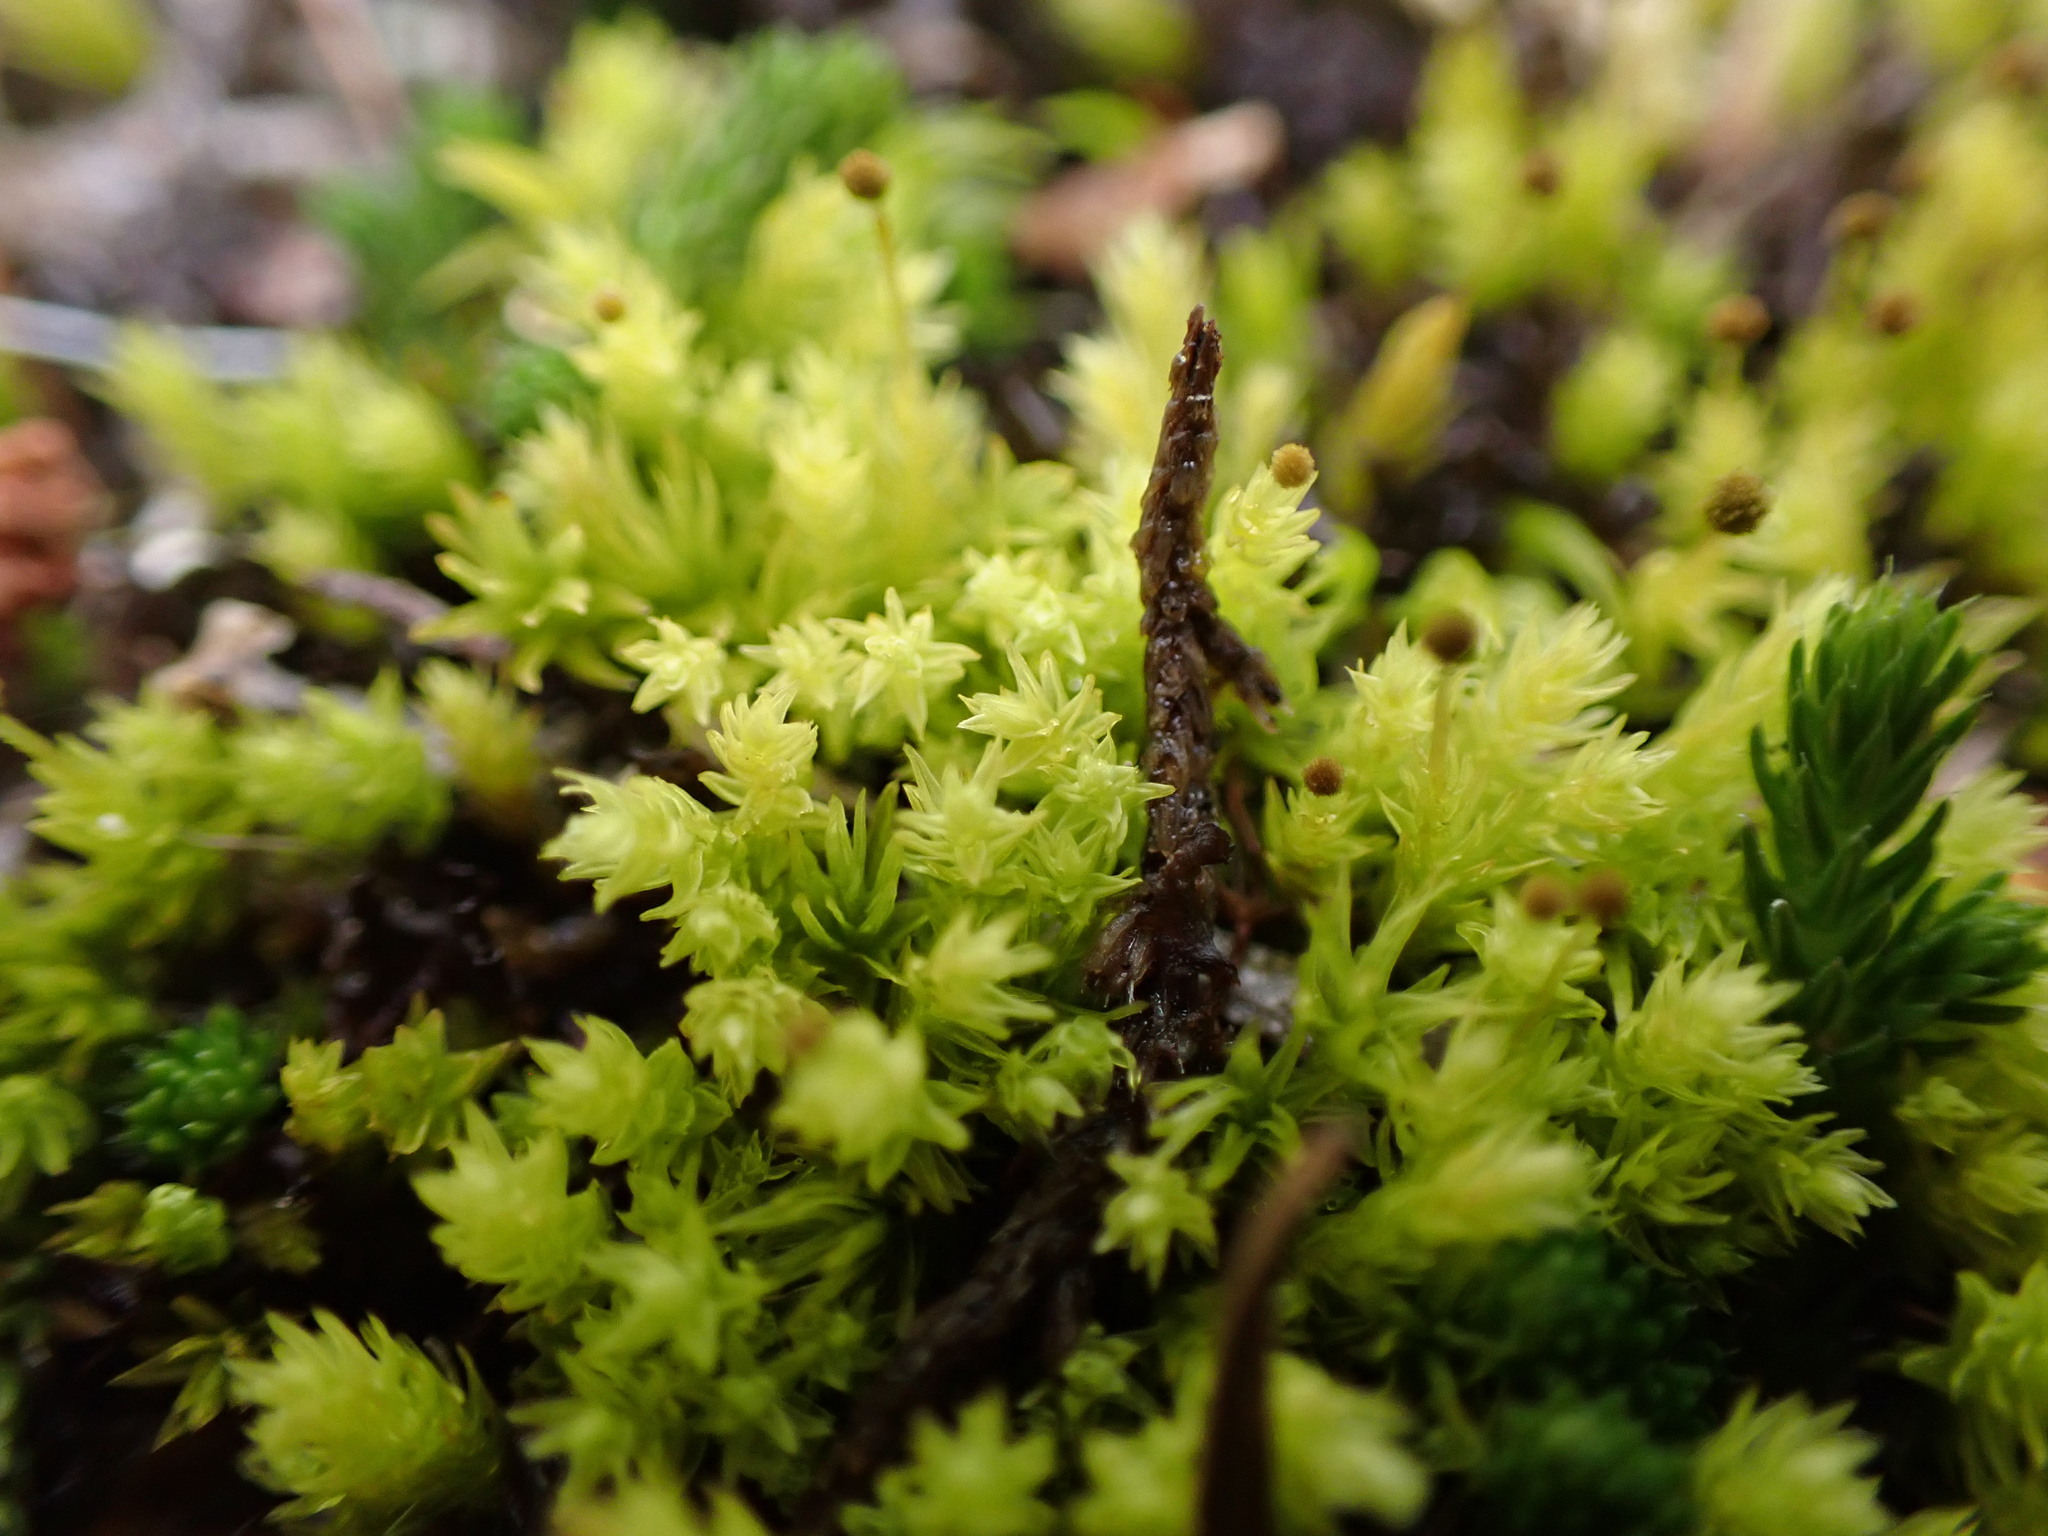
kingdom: Plantae
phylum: Bryophyta
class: Bryopsida
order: Aulacomniales
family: Aulacomniaceae
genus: Aulacomnium
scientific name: Aulacomnium androgynum
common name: Little groove moss
